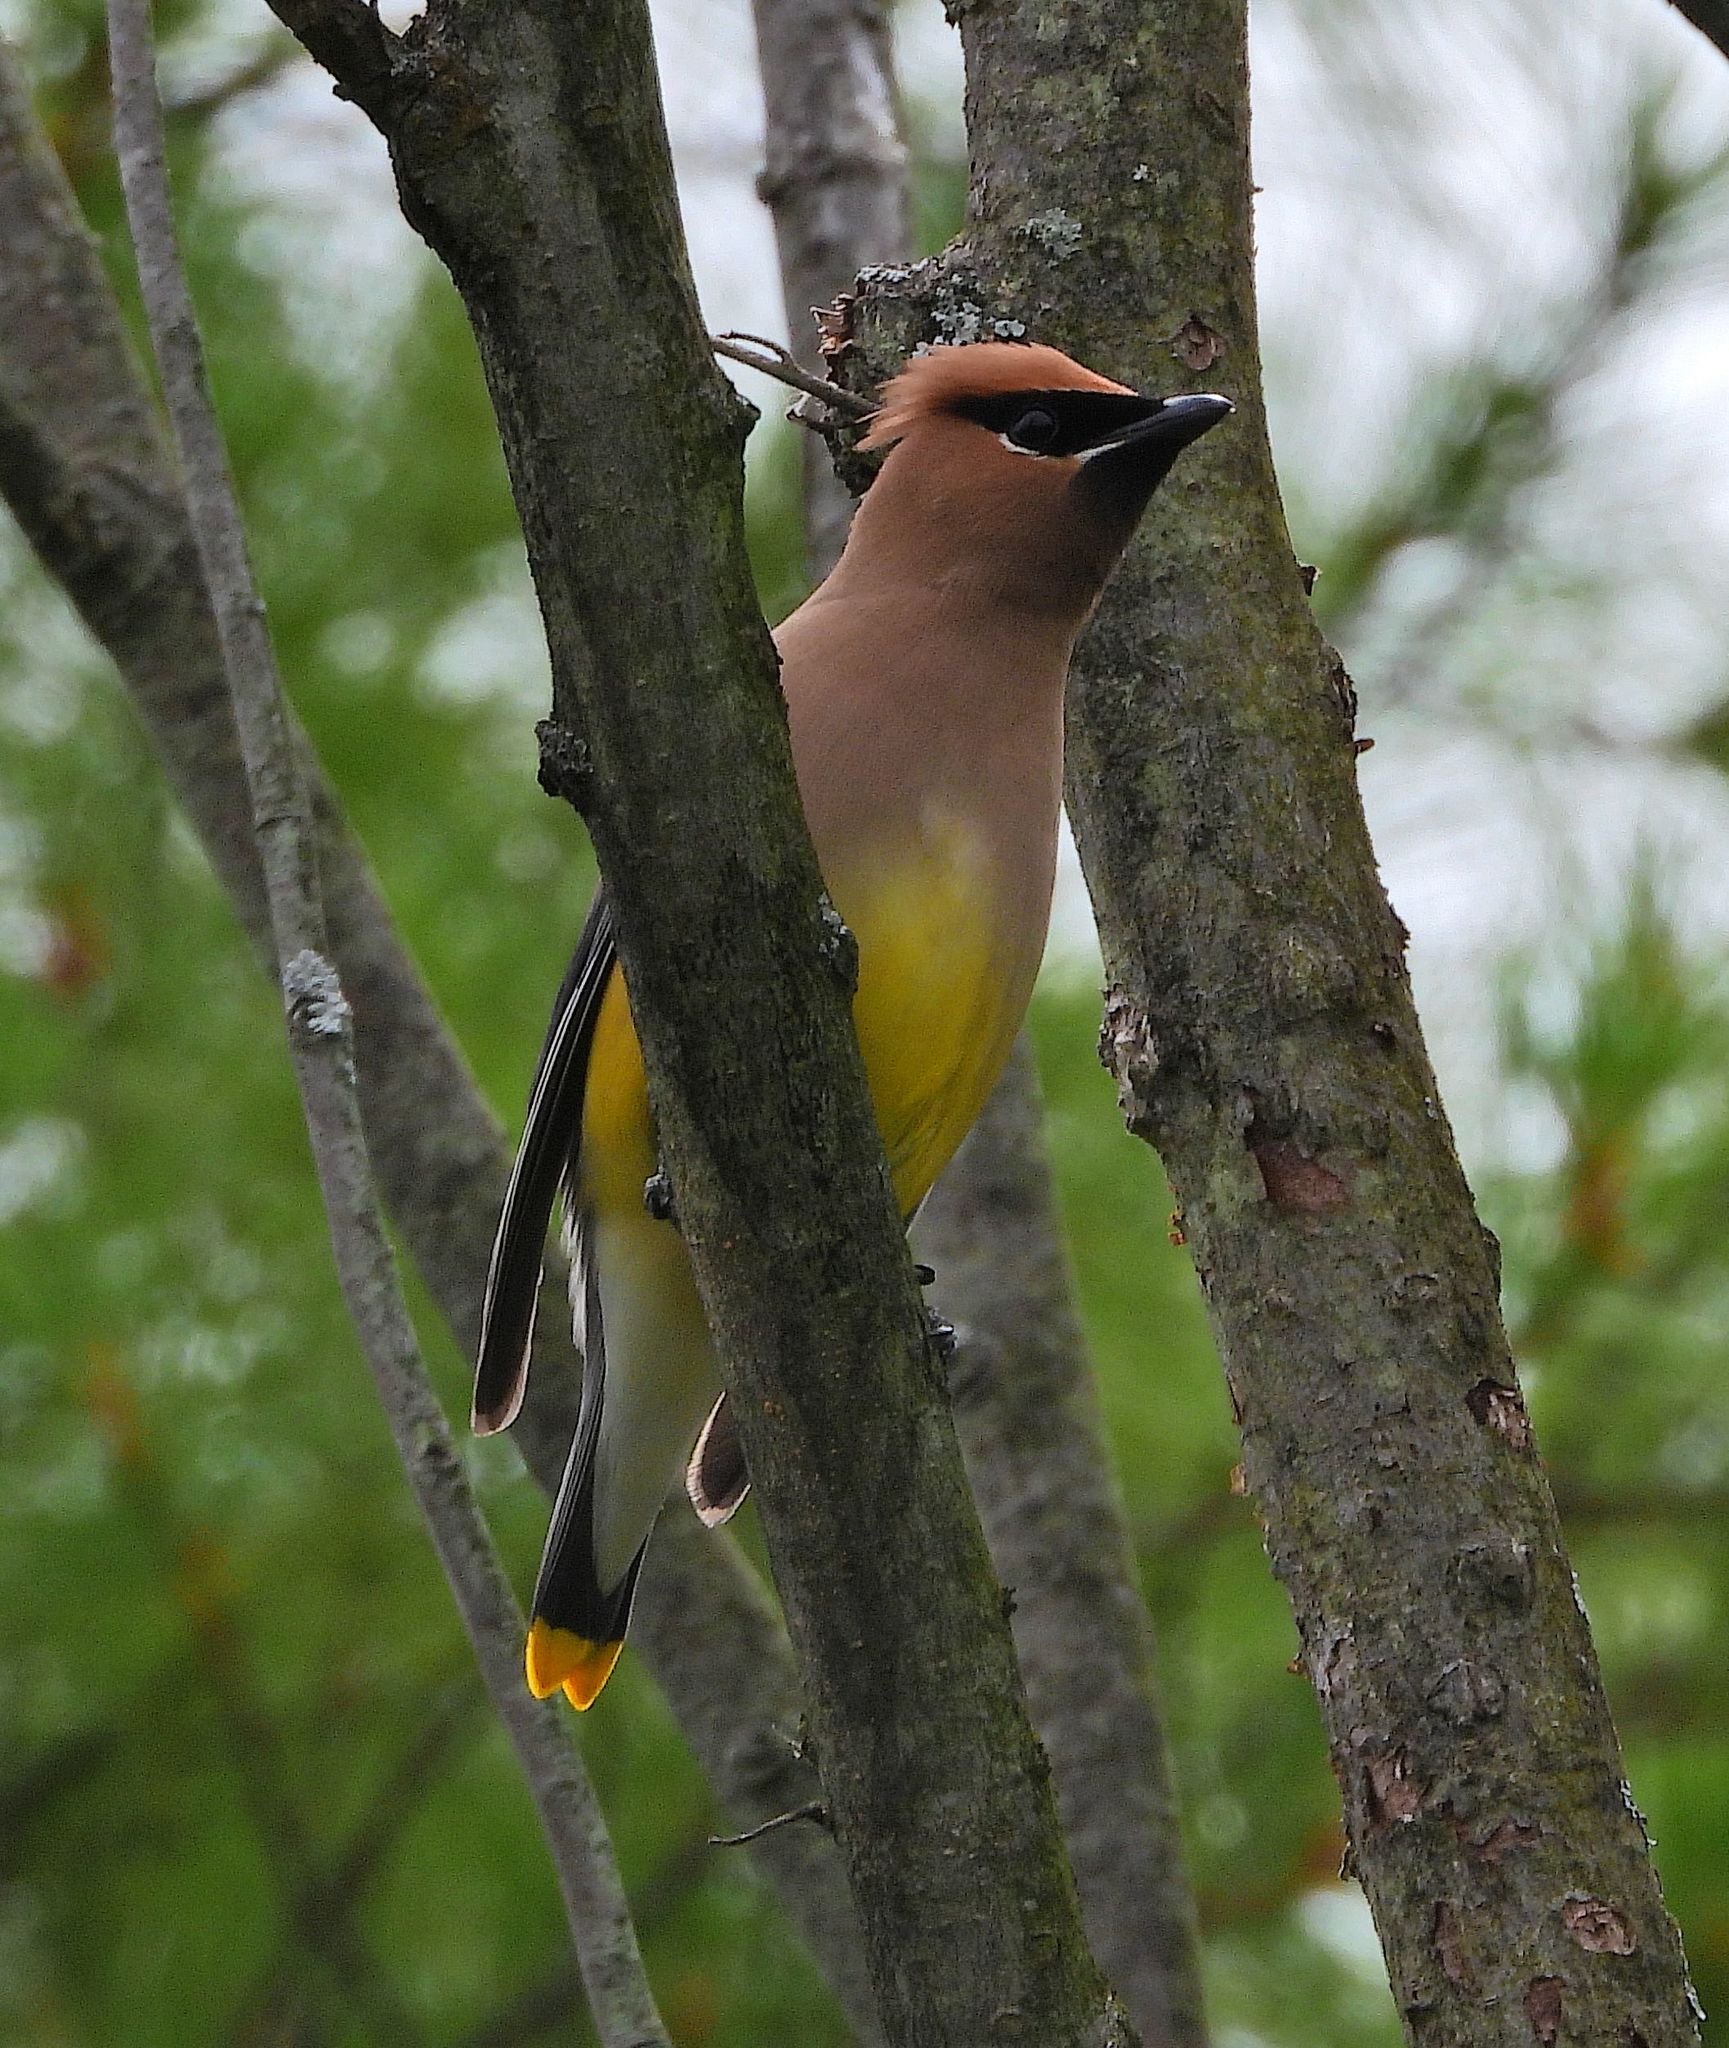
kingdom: Animalia
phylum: Chordata
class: Aves
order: Passeriformes
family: Bombycillidae
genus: Bombycilla
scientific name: Bombycilla cedrorum
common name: Cedar waxwing
